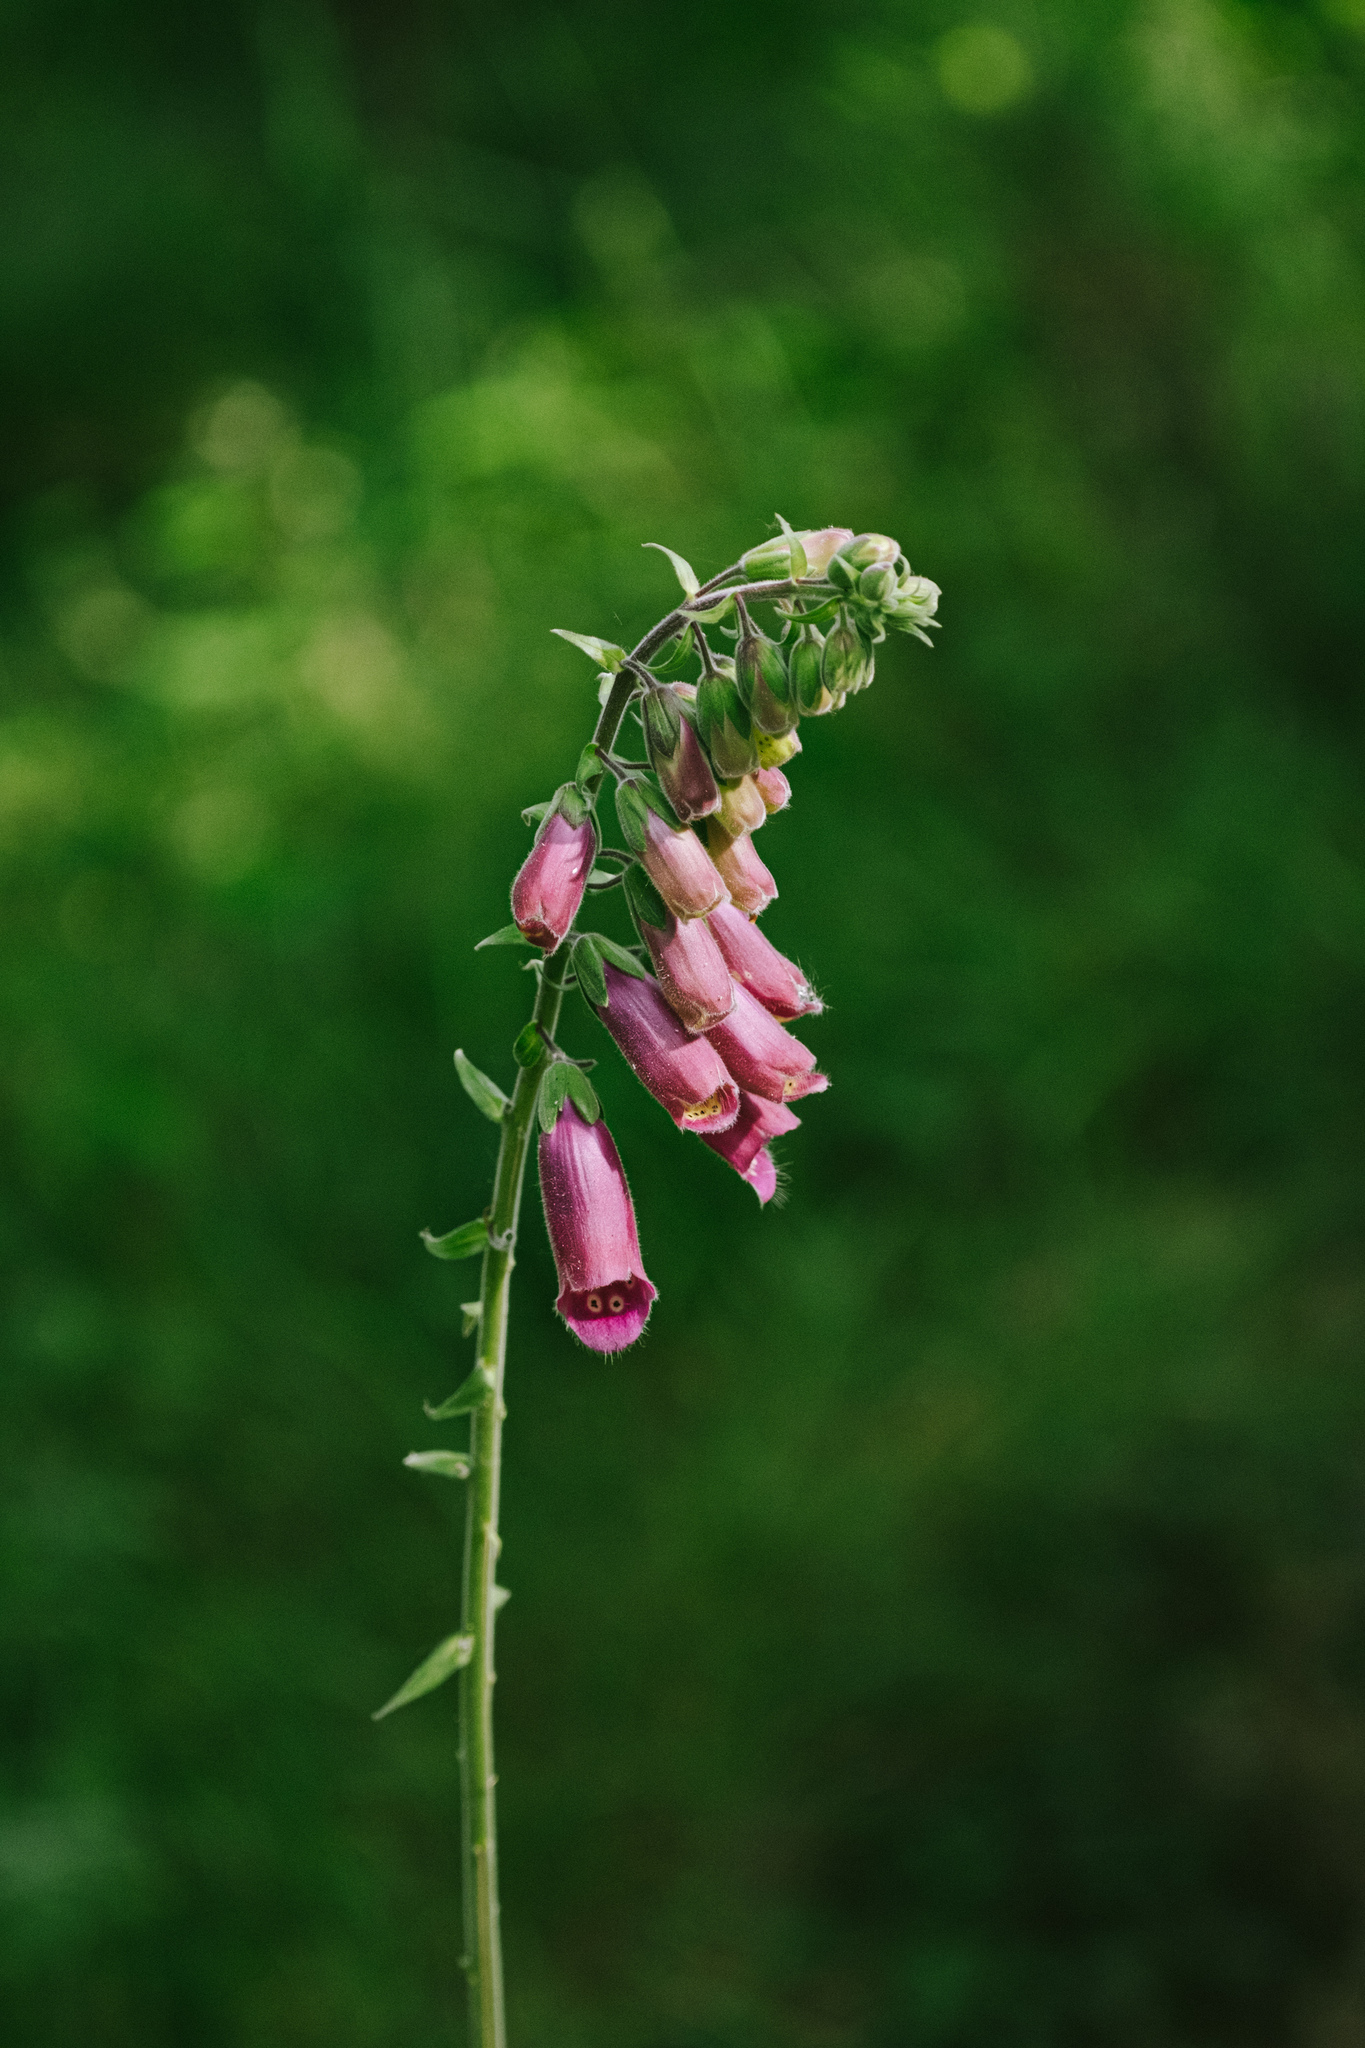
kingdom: Plantae
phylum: Tracheophyta
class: Magnoliopsida
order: Lamiales
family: Plantaginaceae
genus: Digitalis
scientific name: Digitalis purpurea
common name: Foxglove
